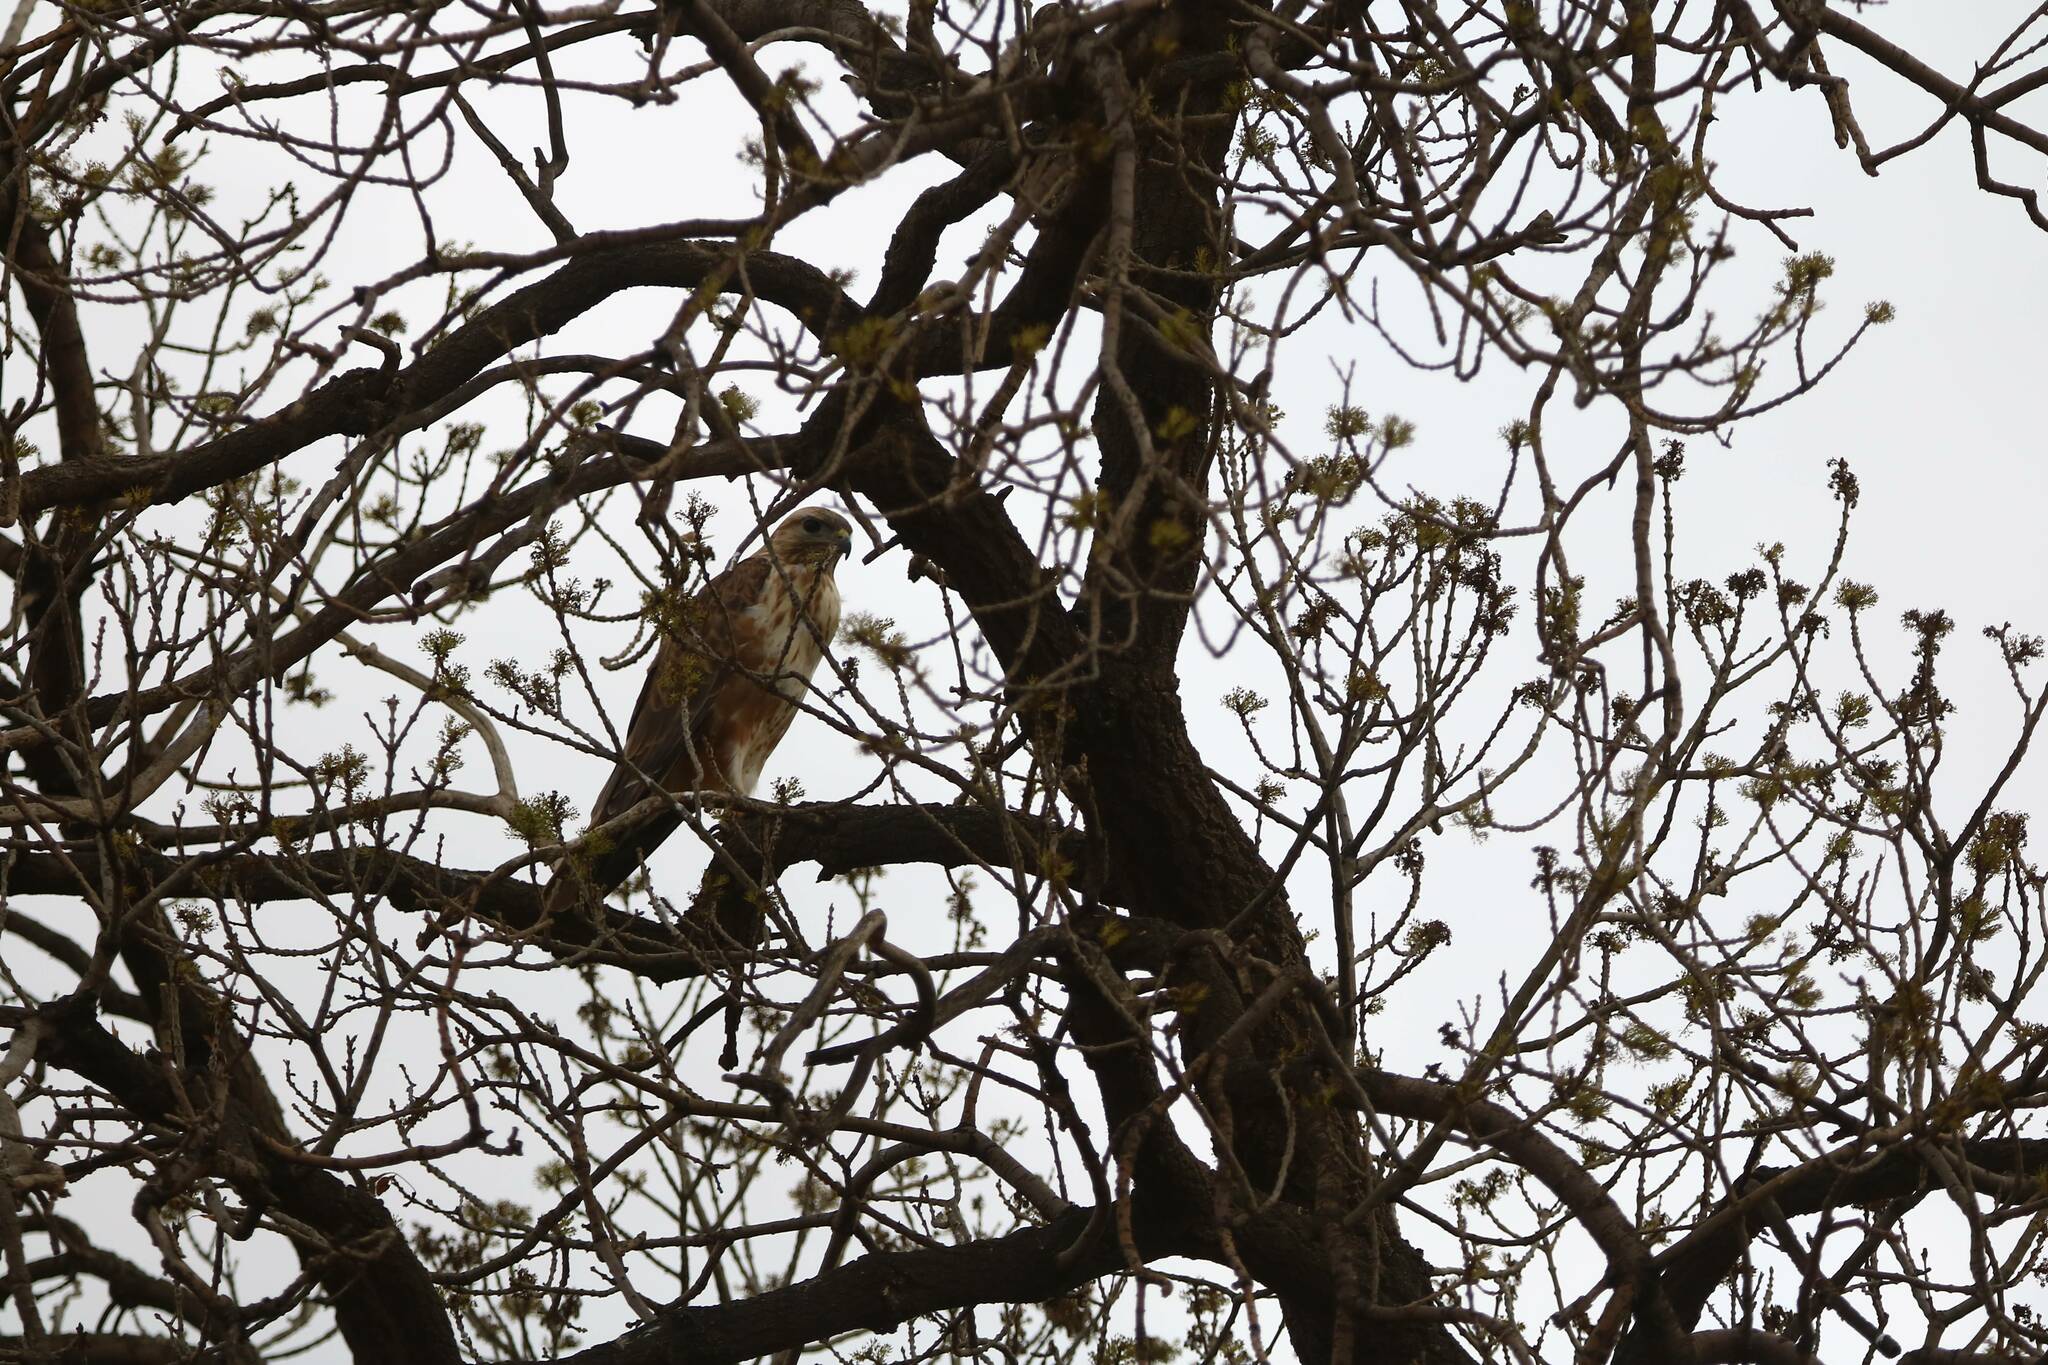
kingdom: Animalia
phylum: Chordata
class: Aves
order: Accipitriformes
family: Accipitridae
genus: Buteo
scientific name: Buteo rufinus
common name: Long-legged buzzard
